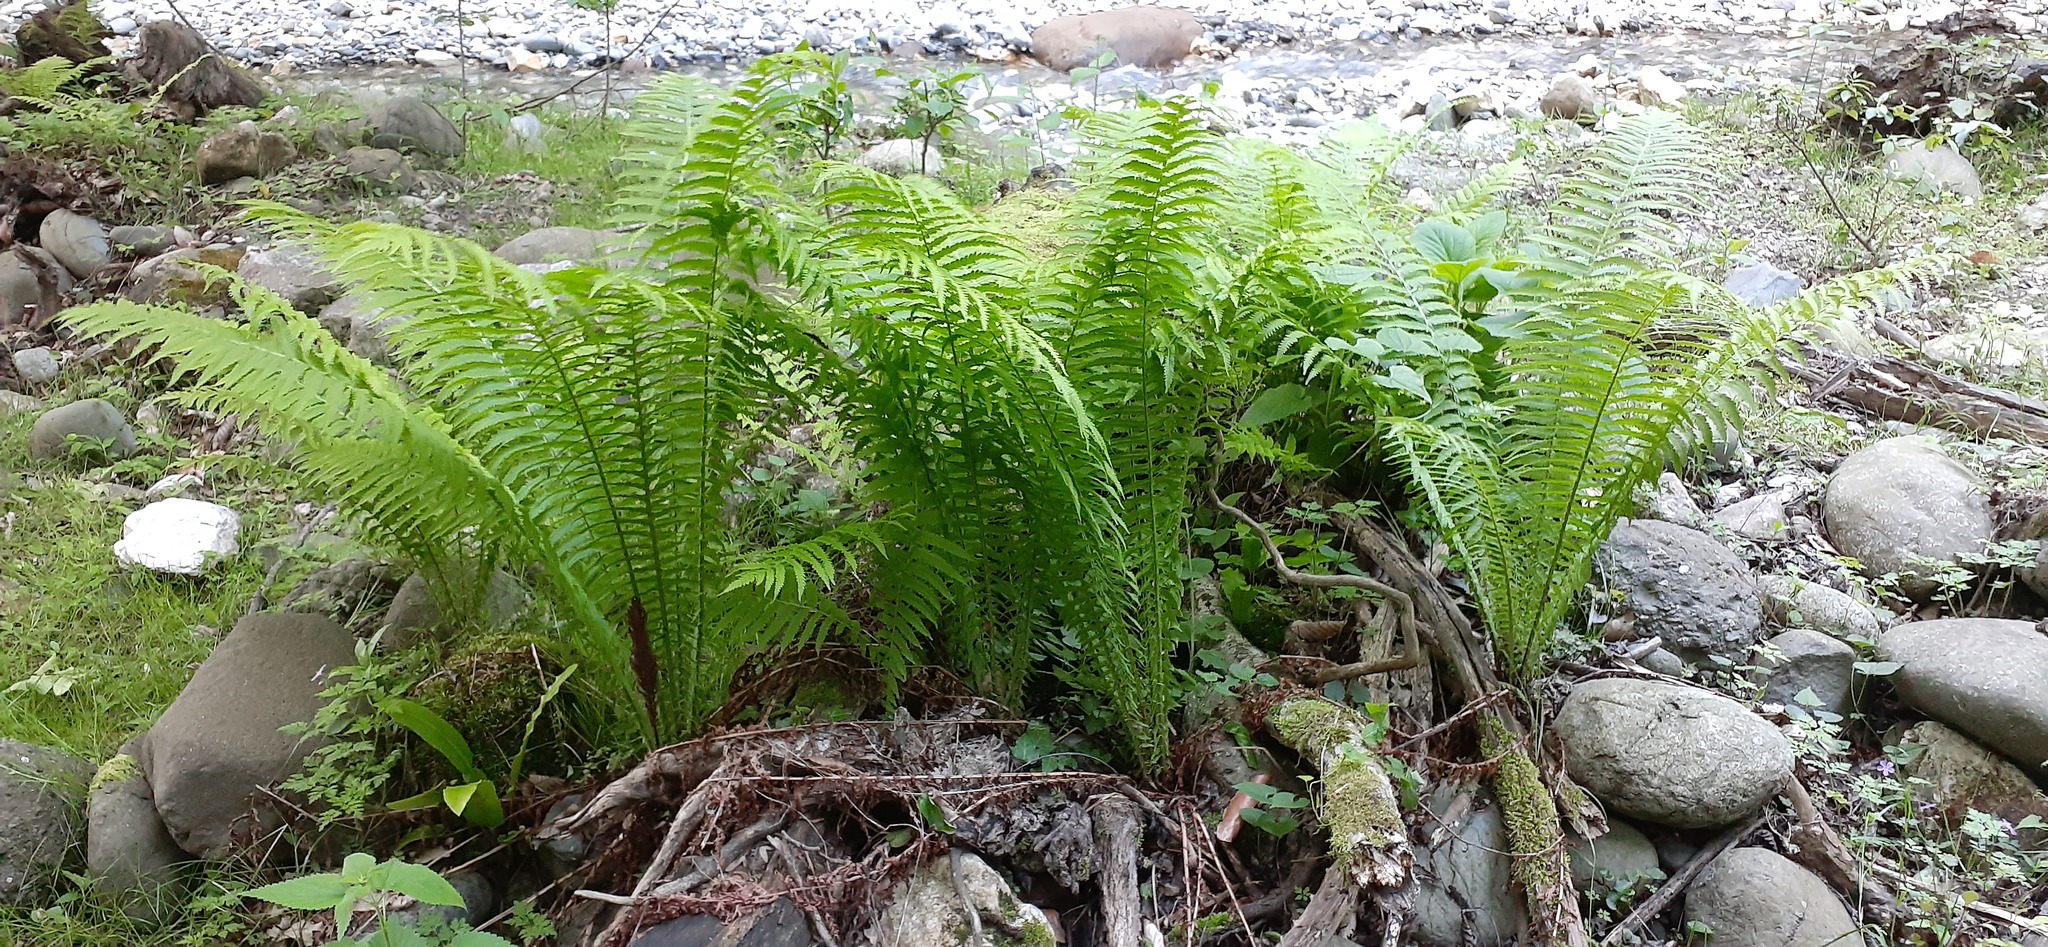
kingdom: Plantae
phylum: Tracheophyta
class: Polypodiopsida
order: Polypodiales
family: Onocleaceae
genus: Matteuccia
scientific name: Matteuccia struthiopteris
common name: Ostrich fern
